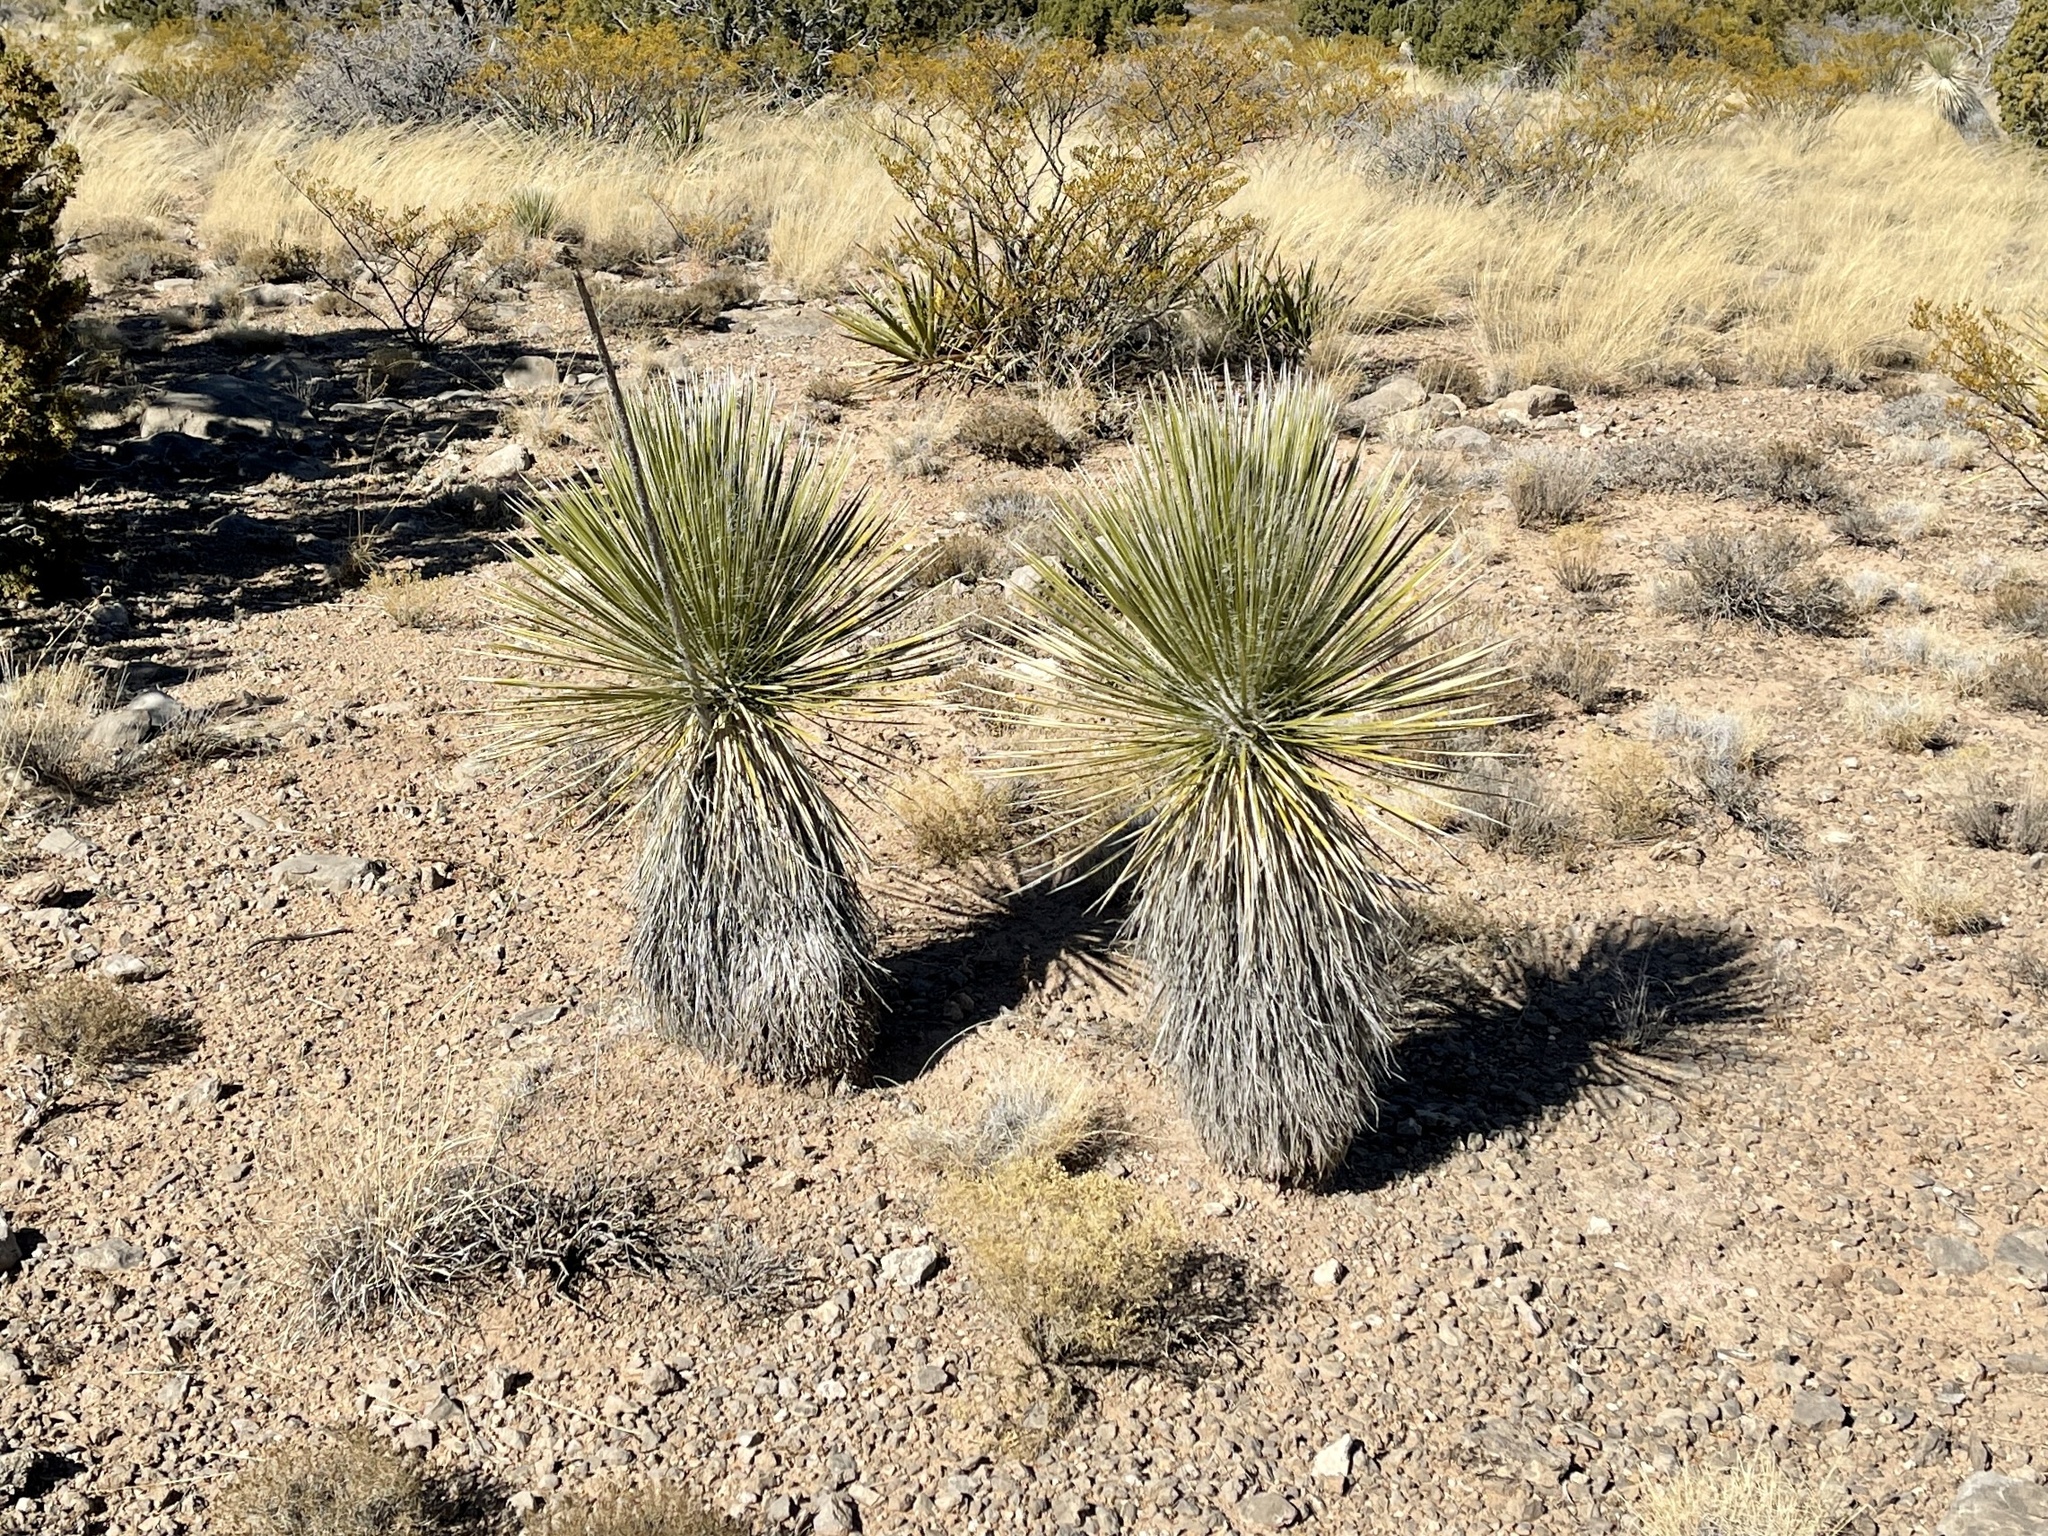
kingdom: Plantae
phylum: Tracheophyta
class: Liliopsida
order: Asparagales
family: Asparagaceae
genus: Yucca
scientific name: Yucca elata
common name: Palmella
